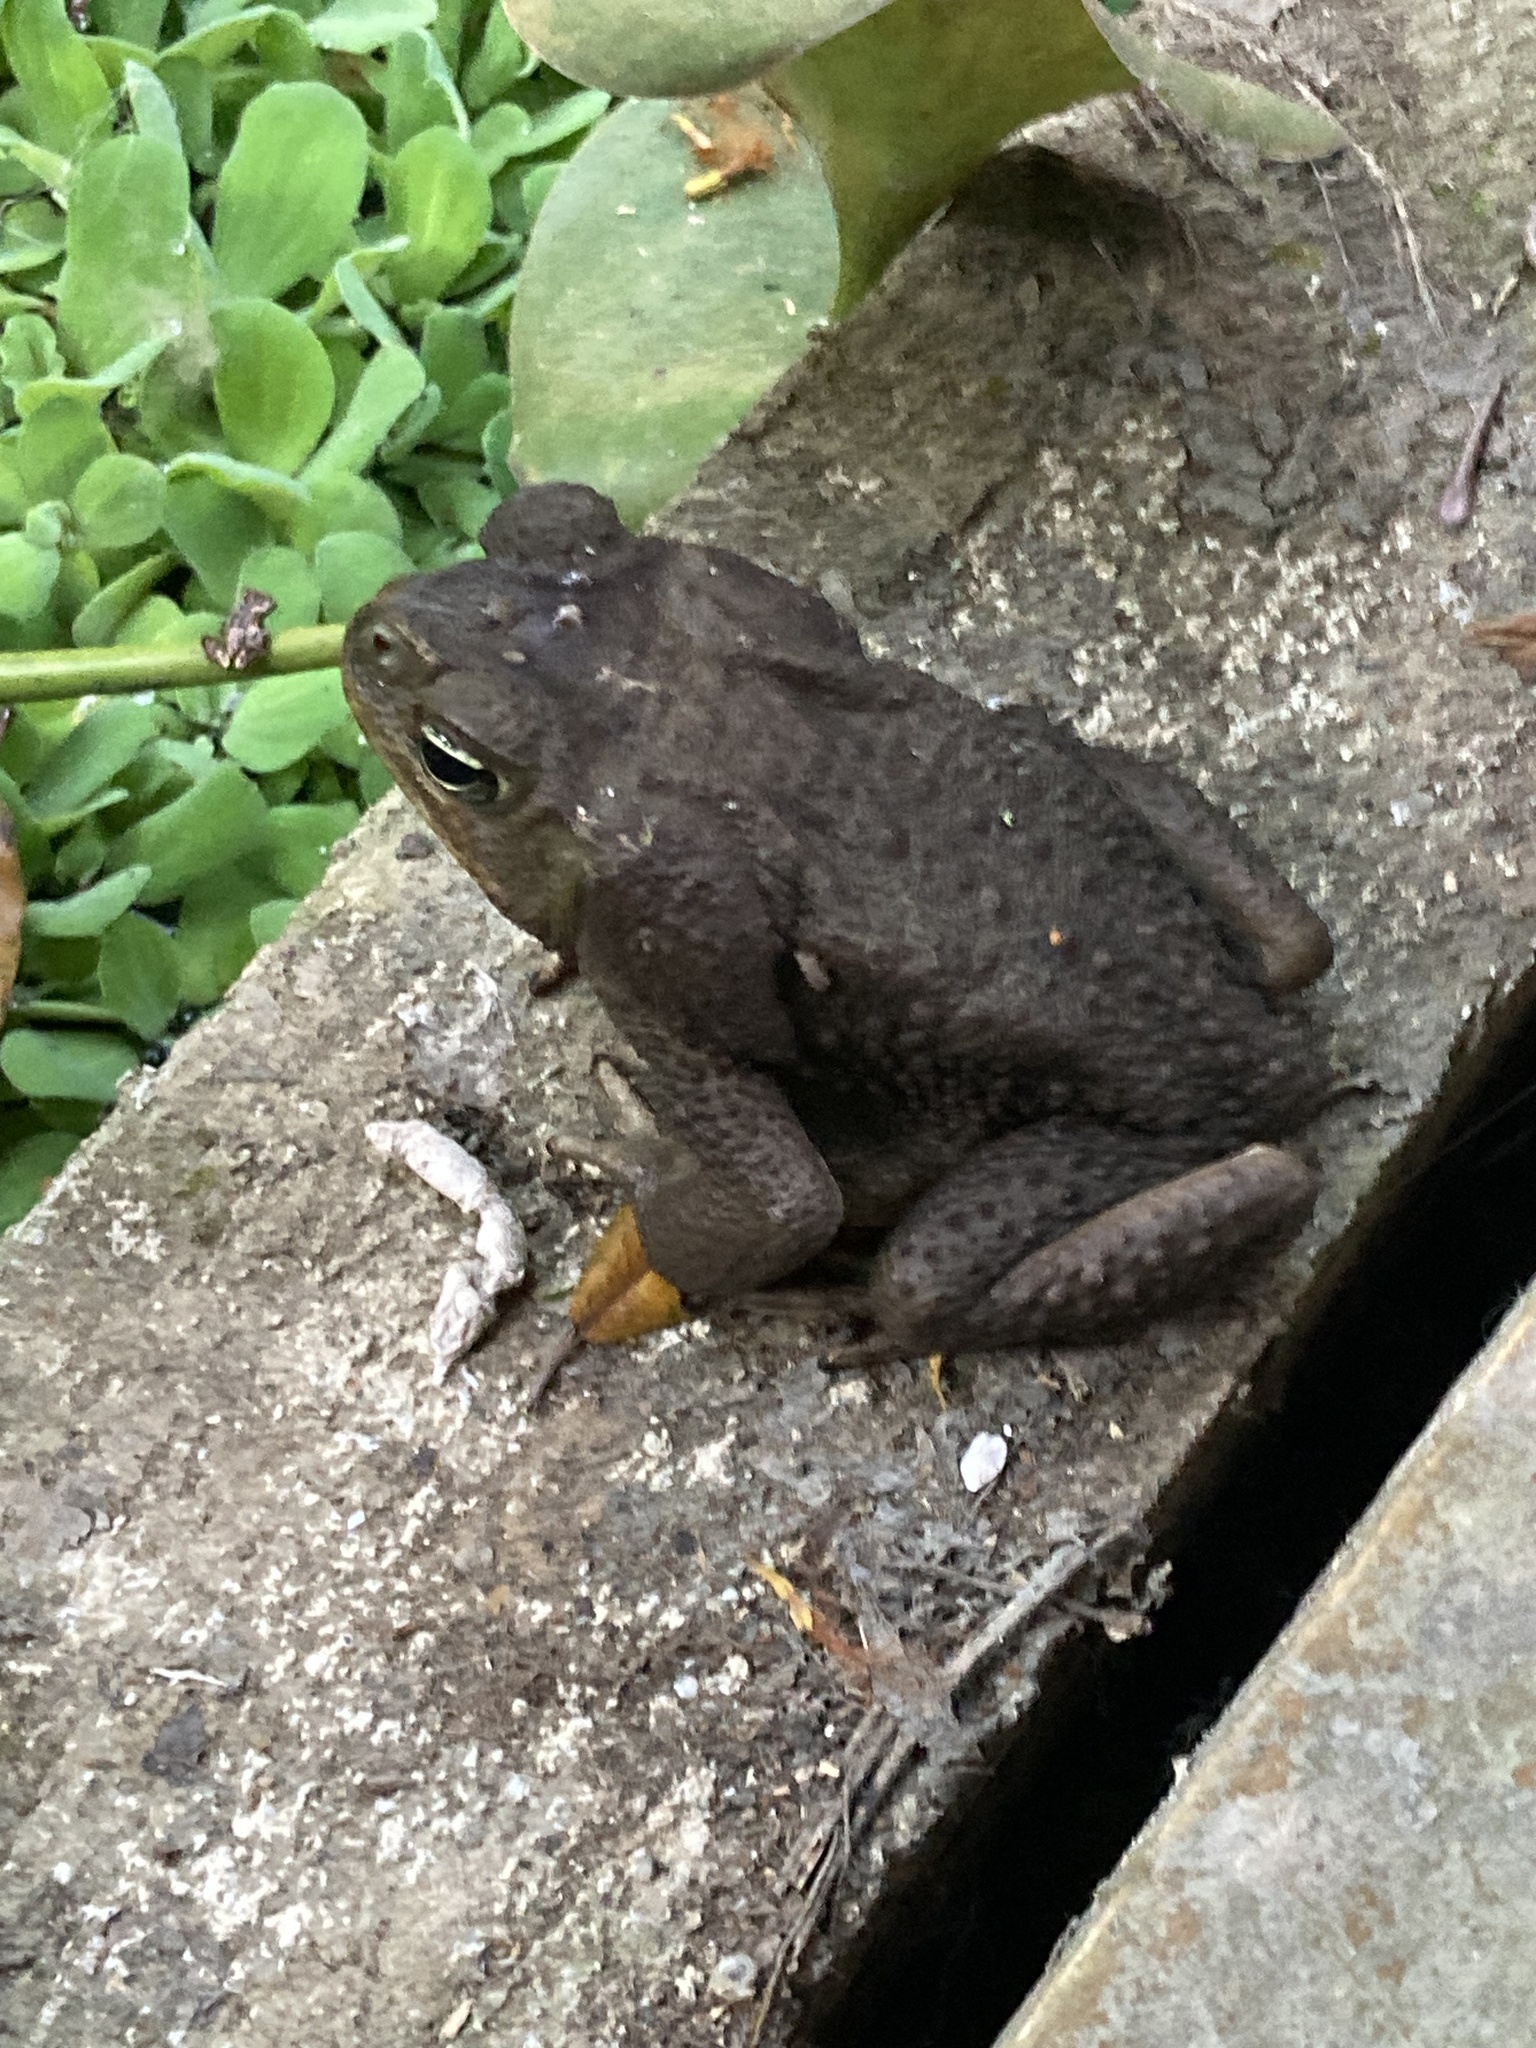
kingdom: Animalia
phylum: Chordata
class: Amphibia
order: Anura
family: Bufonidae
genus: Rhinella
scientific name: Rhinella horribilis
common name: Mesoamerican cane toad
